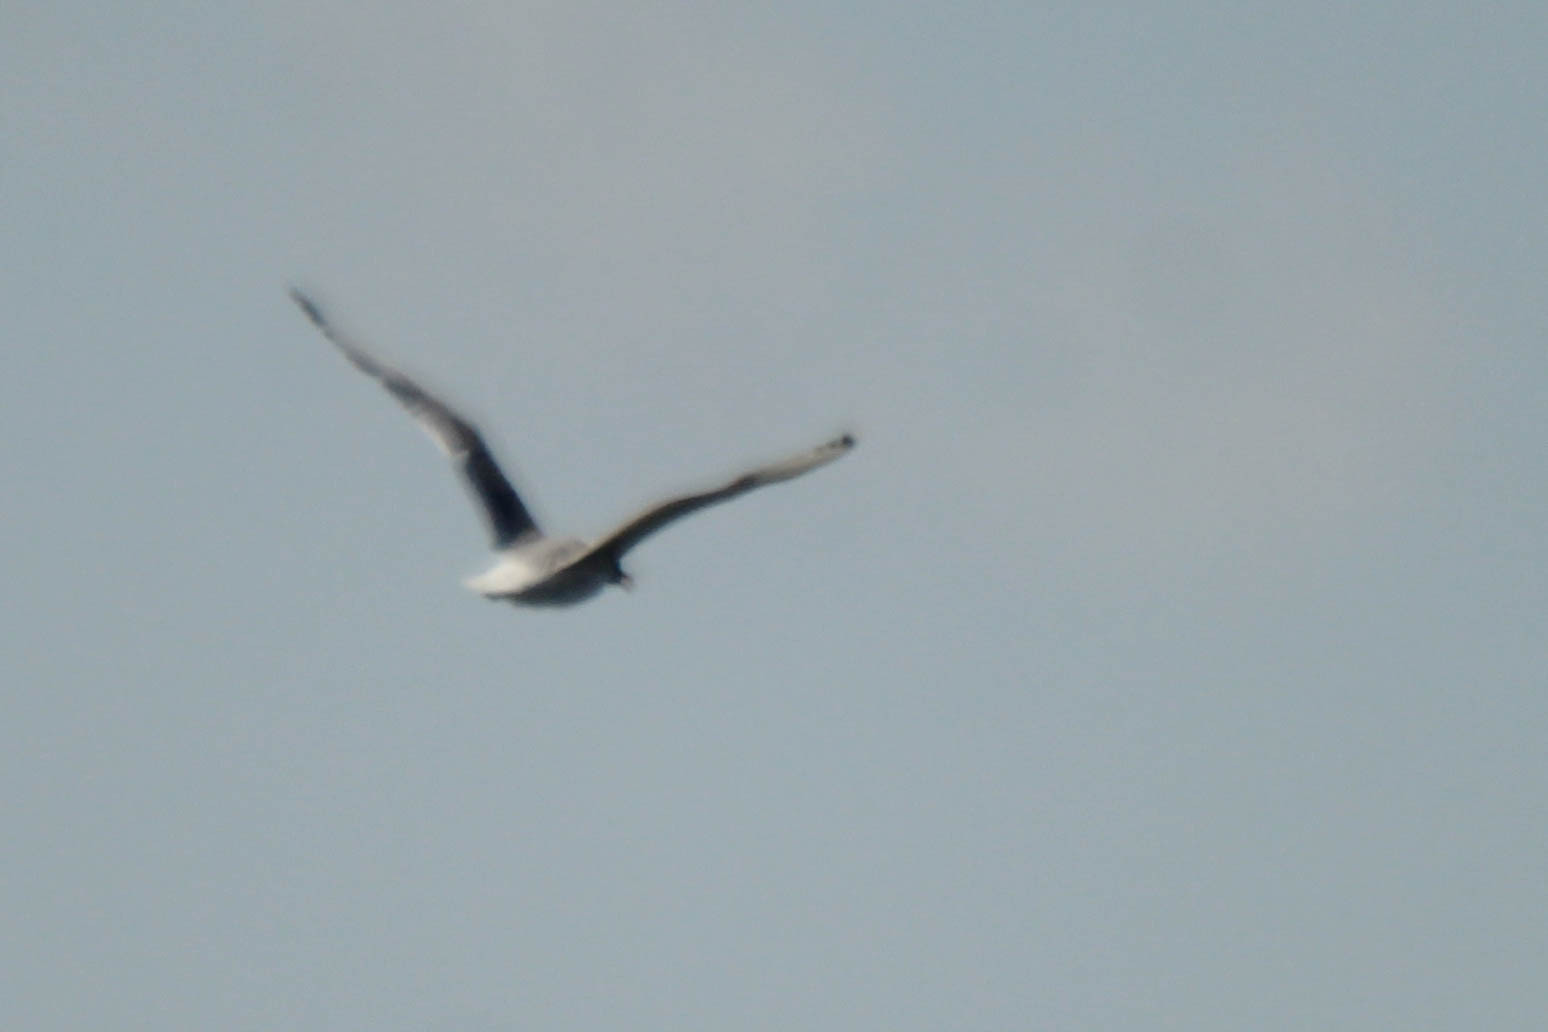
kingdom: Animalia
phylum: Chordata
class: Aves
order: Charadriiformes
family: Laridae
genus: Ichthyaetus
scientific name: Ichthyaetus ichthyaetus
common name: Pallas's gull
